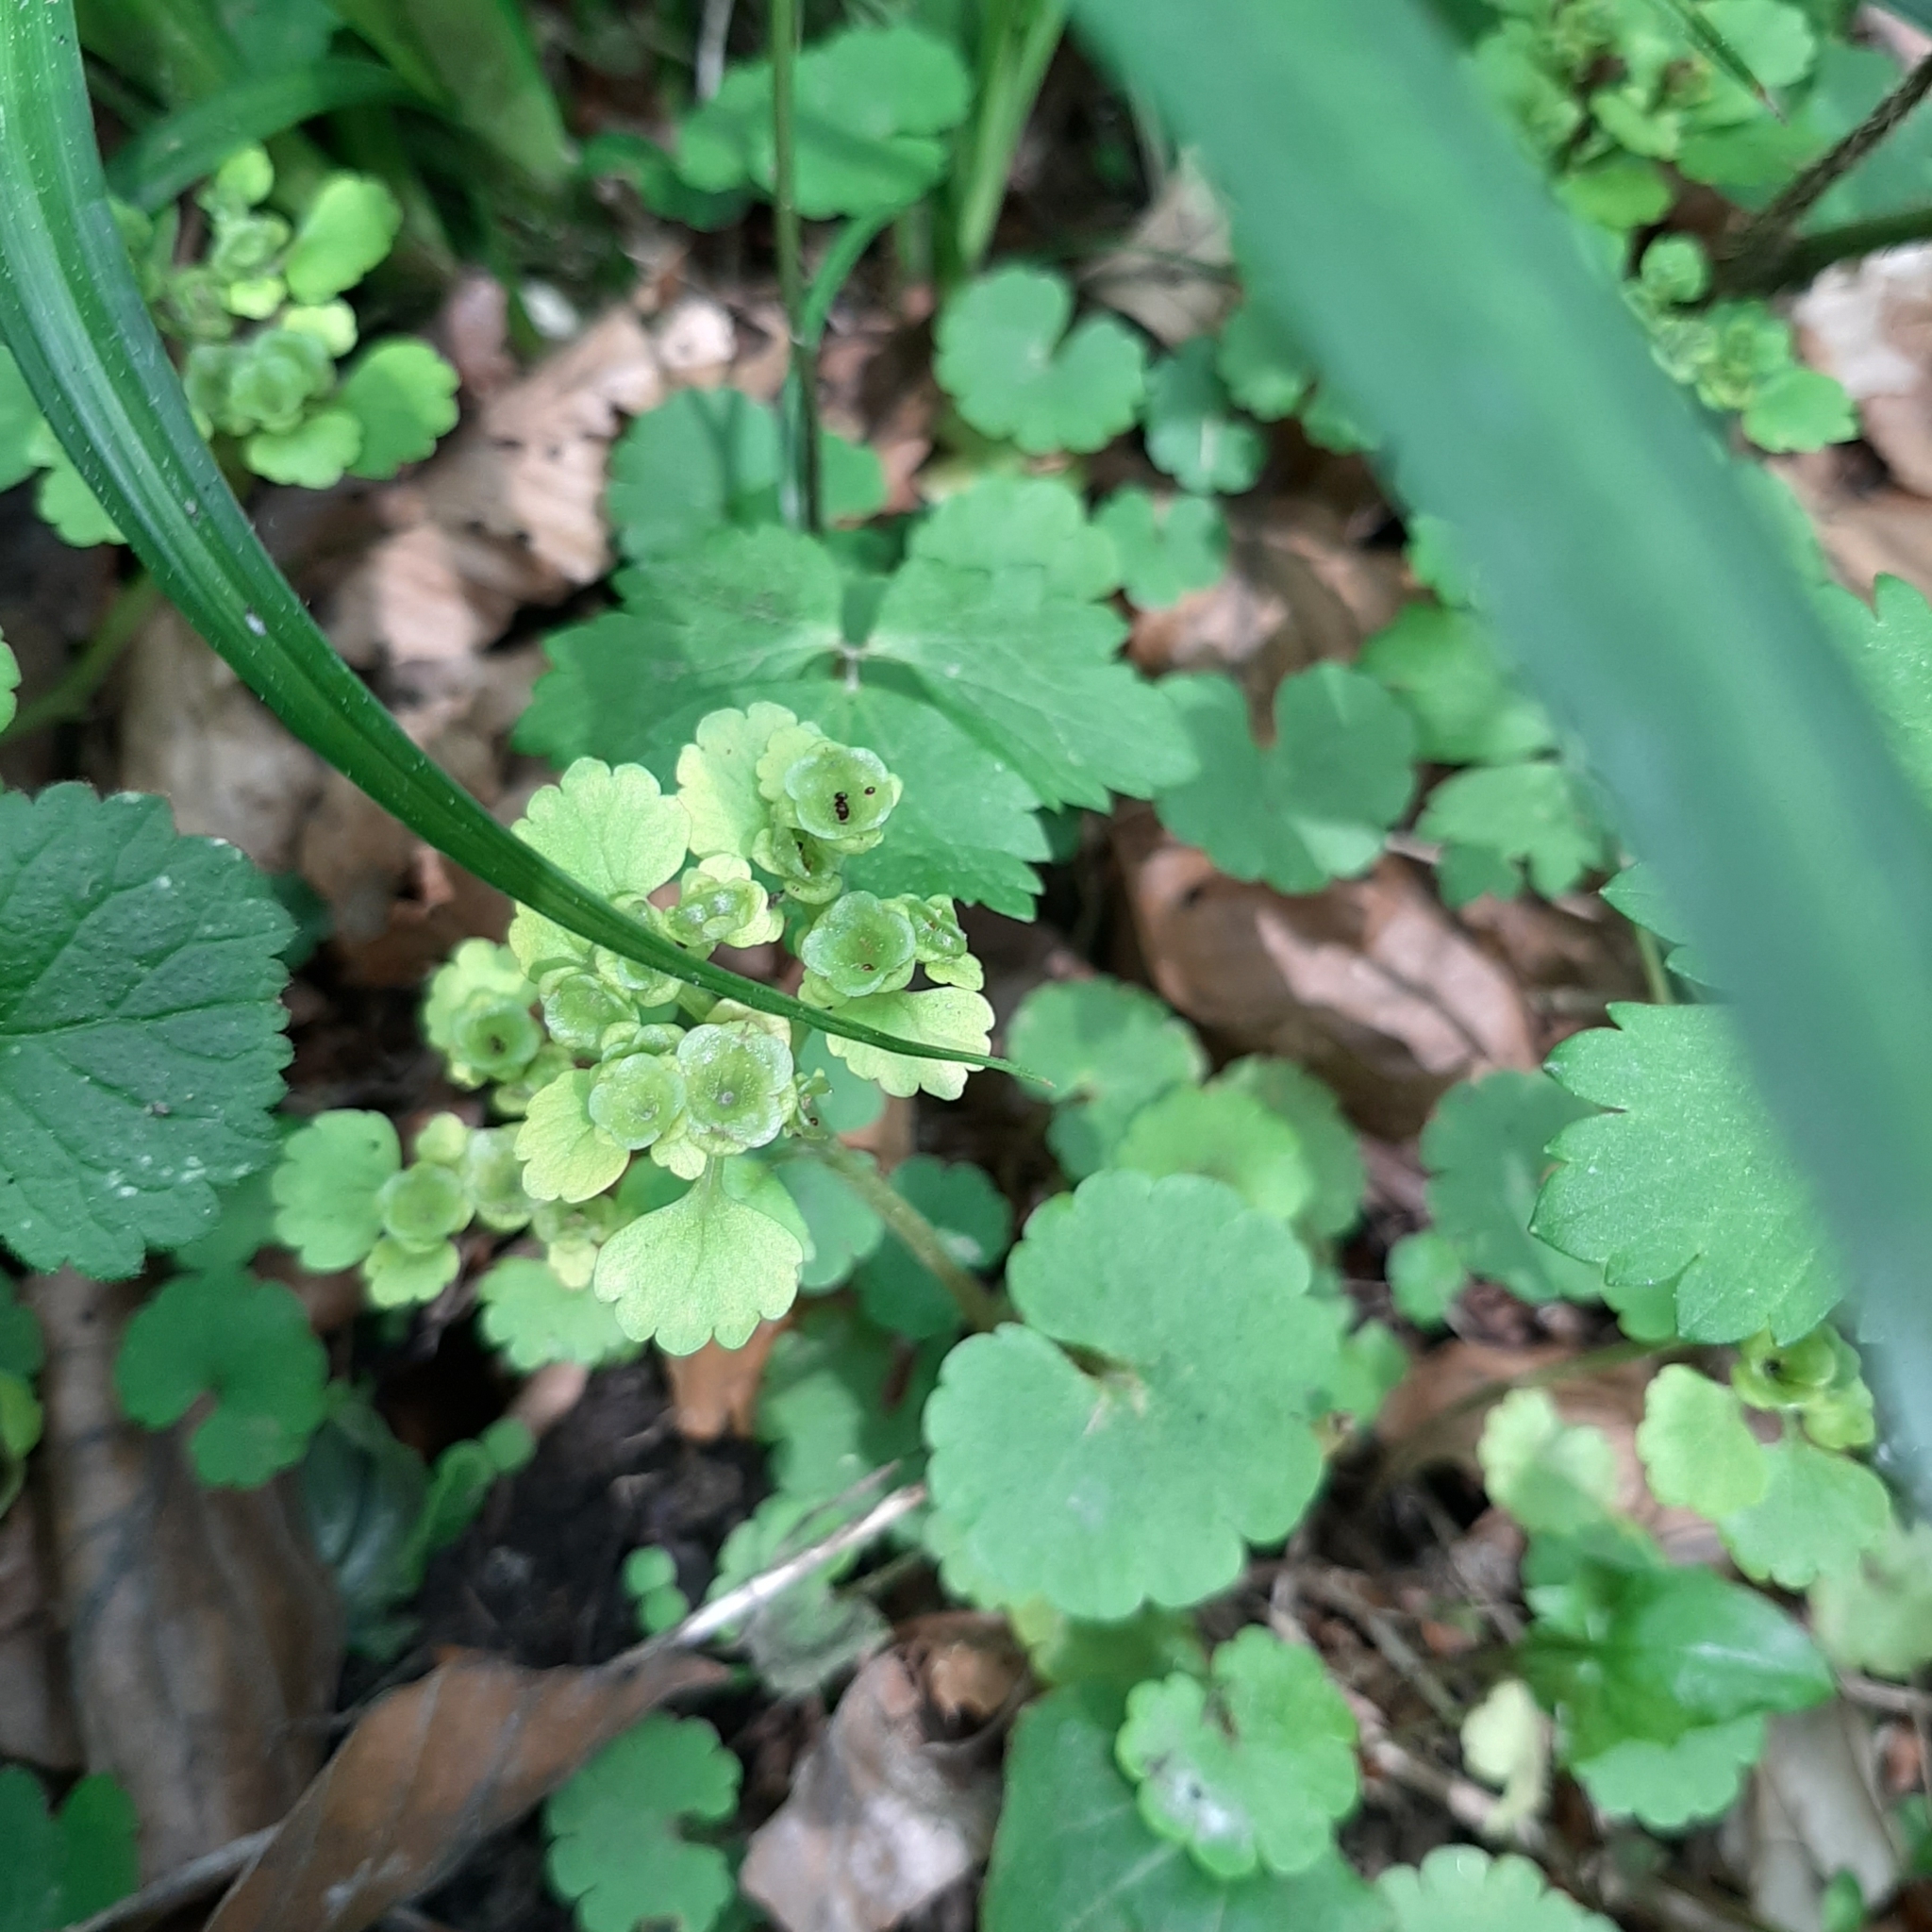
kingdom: Plantae
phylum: Tracheophyta
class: Magnoliopsida
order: Saxifragales
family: Saxifragaceae
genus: Chrysosplenium
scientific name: Chrysosplenium alternifolium
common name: Alternate-leaved golden-saxifrage
